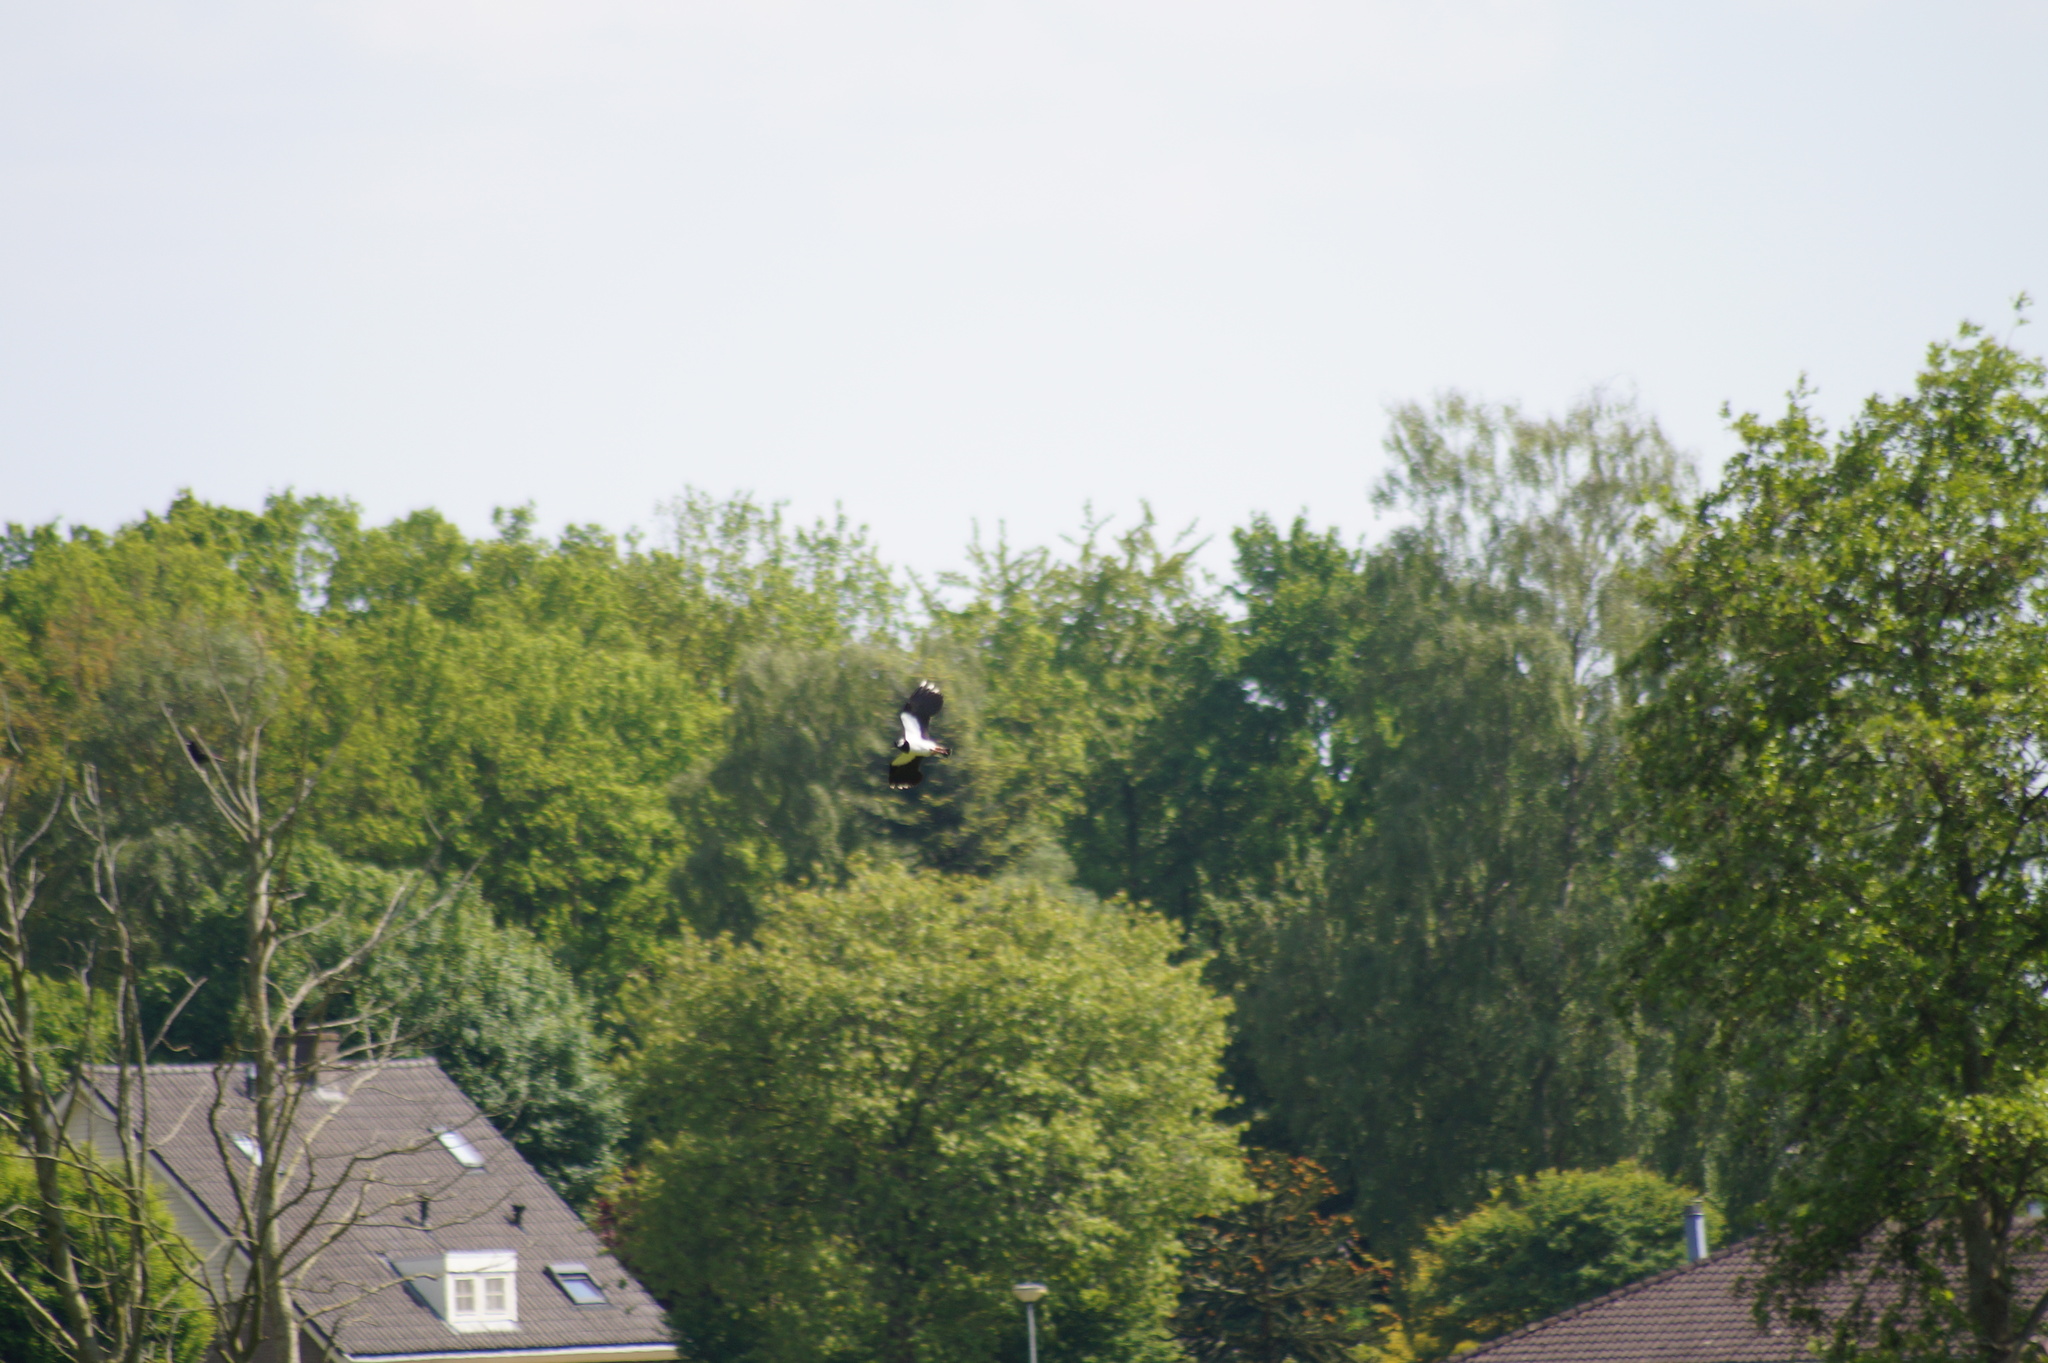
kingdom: Animalia
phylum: Chordata
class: Aves
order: Charadriiformes
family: Charadriidae
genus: Vanellus
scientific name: Vanellus vanellus
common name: Northern lapwing
